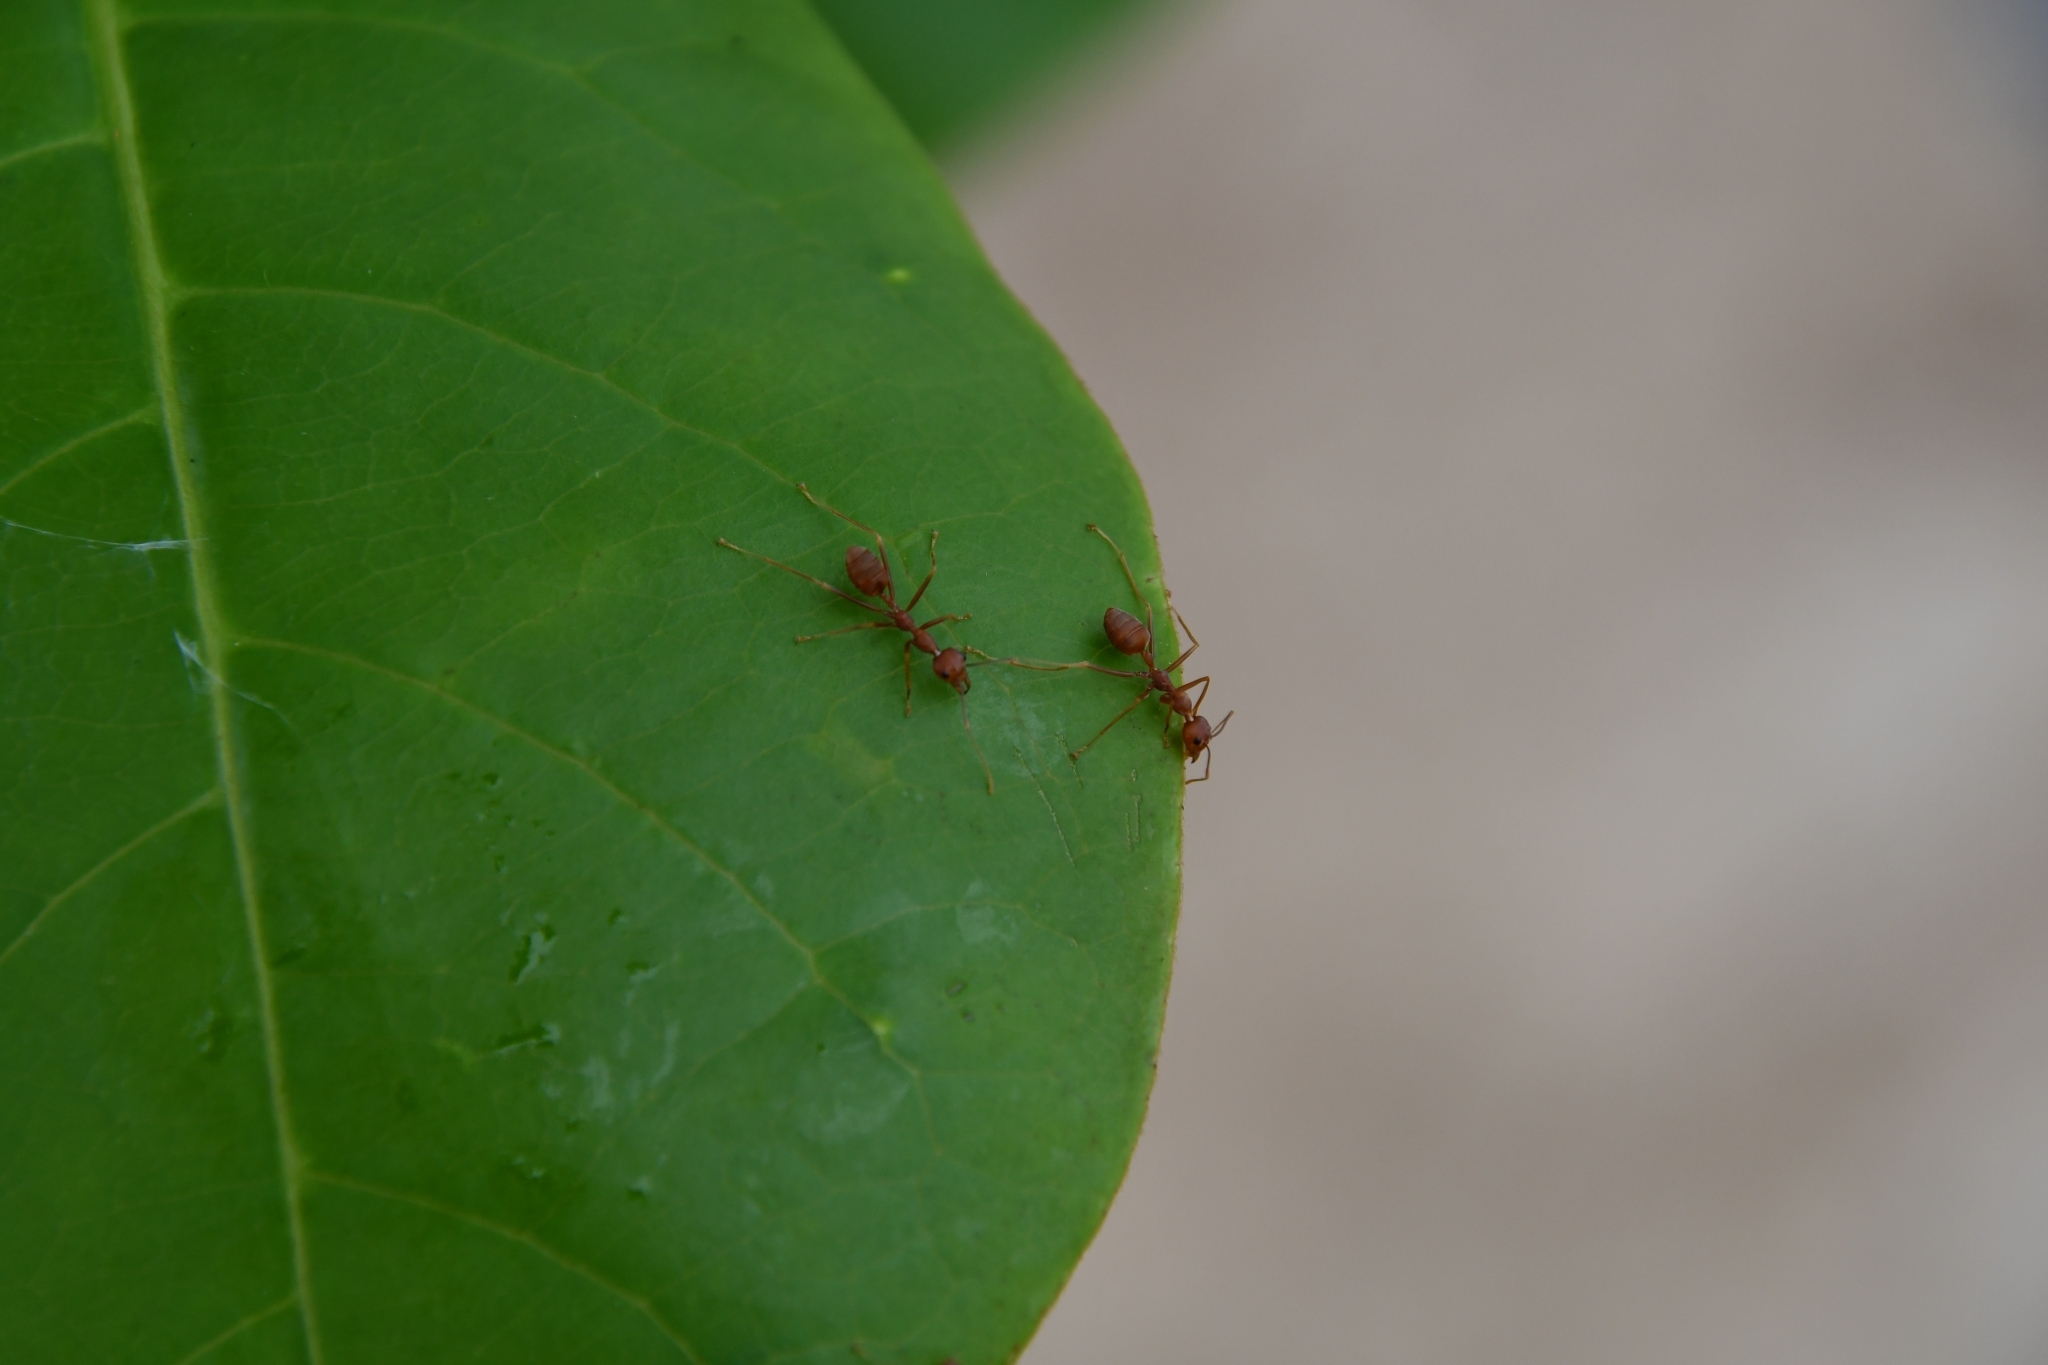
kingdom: Animalia
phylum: Arthropoda
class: Insecta
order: Hymenoptera
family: Formicidae
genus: Oecophylla
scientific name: Oecophylla smaragdina
